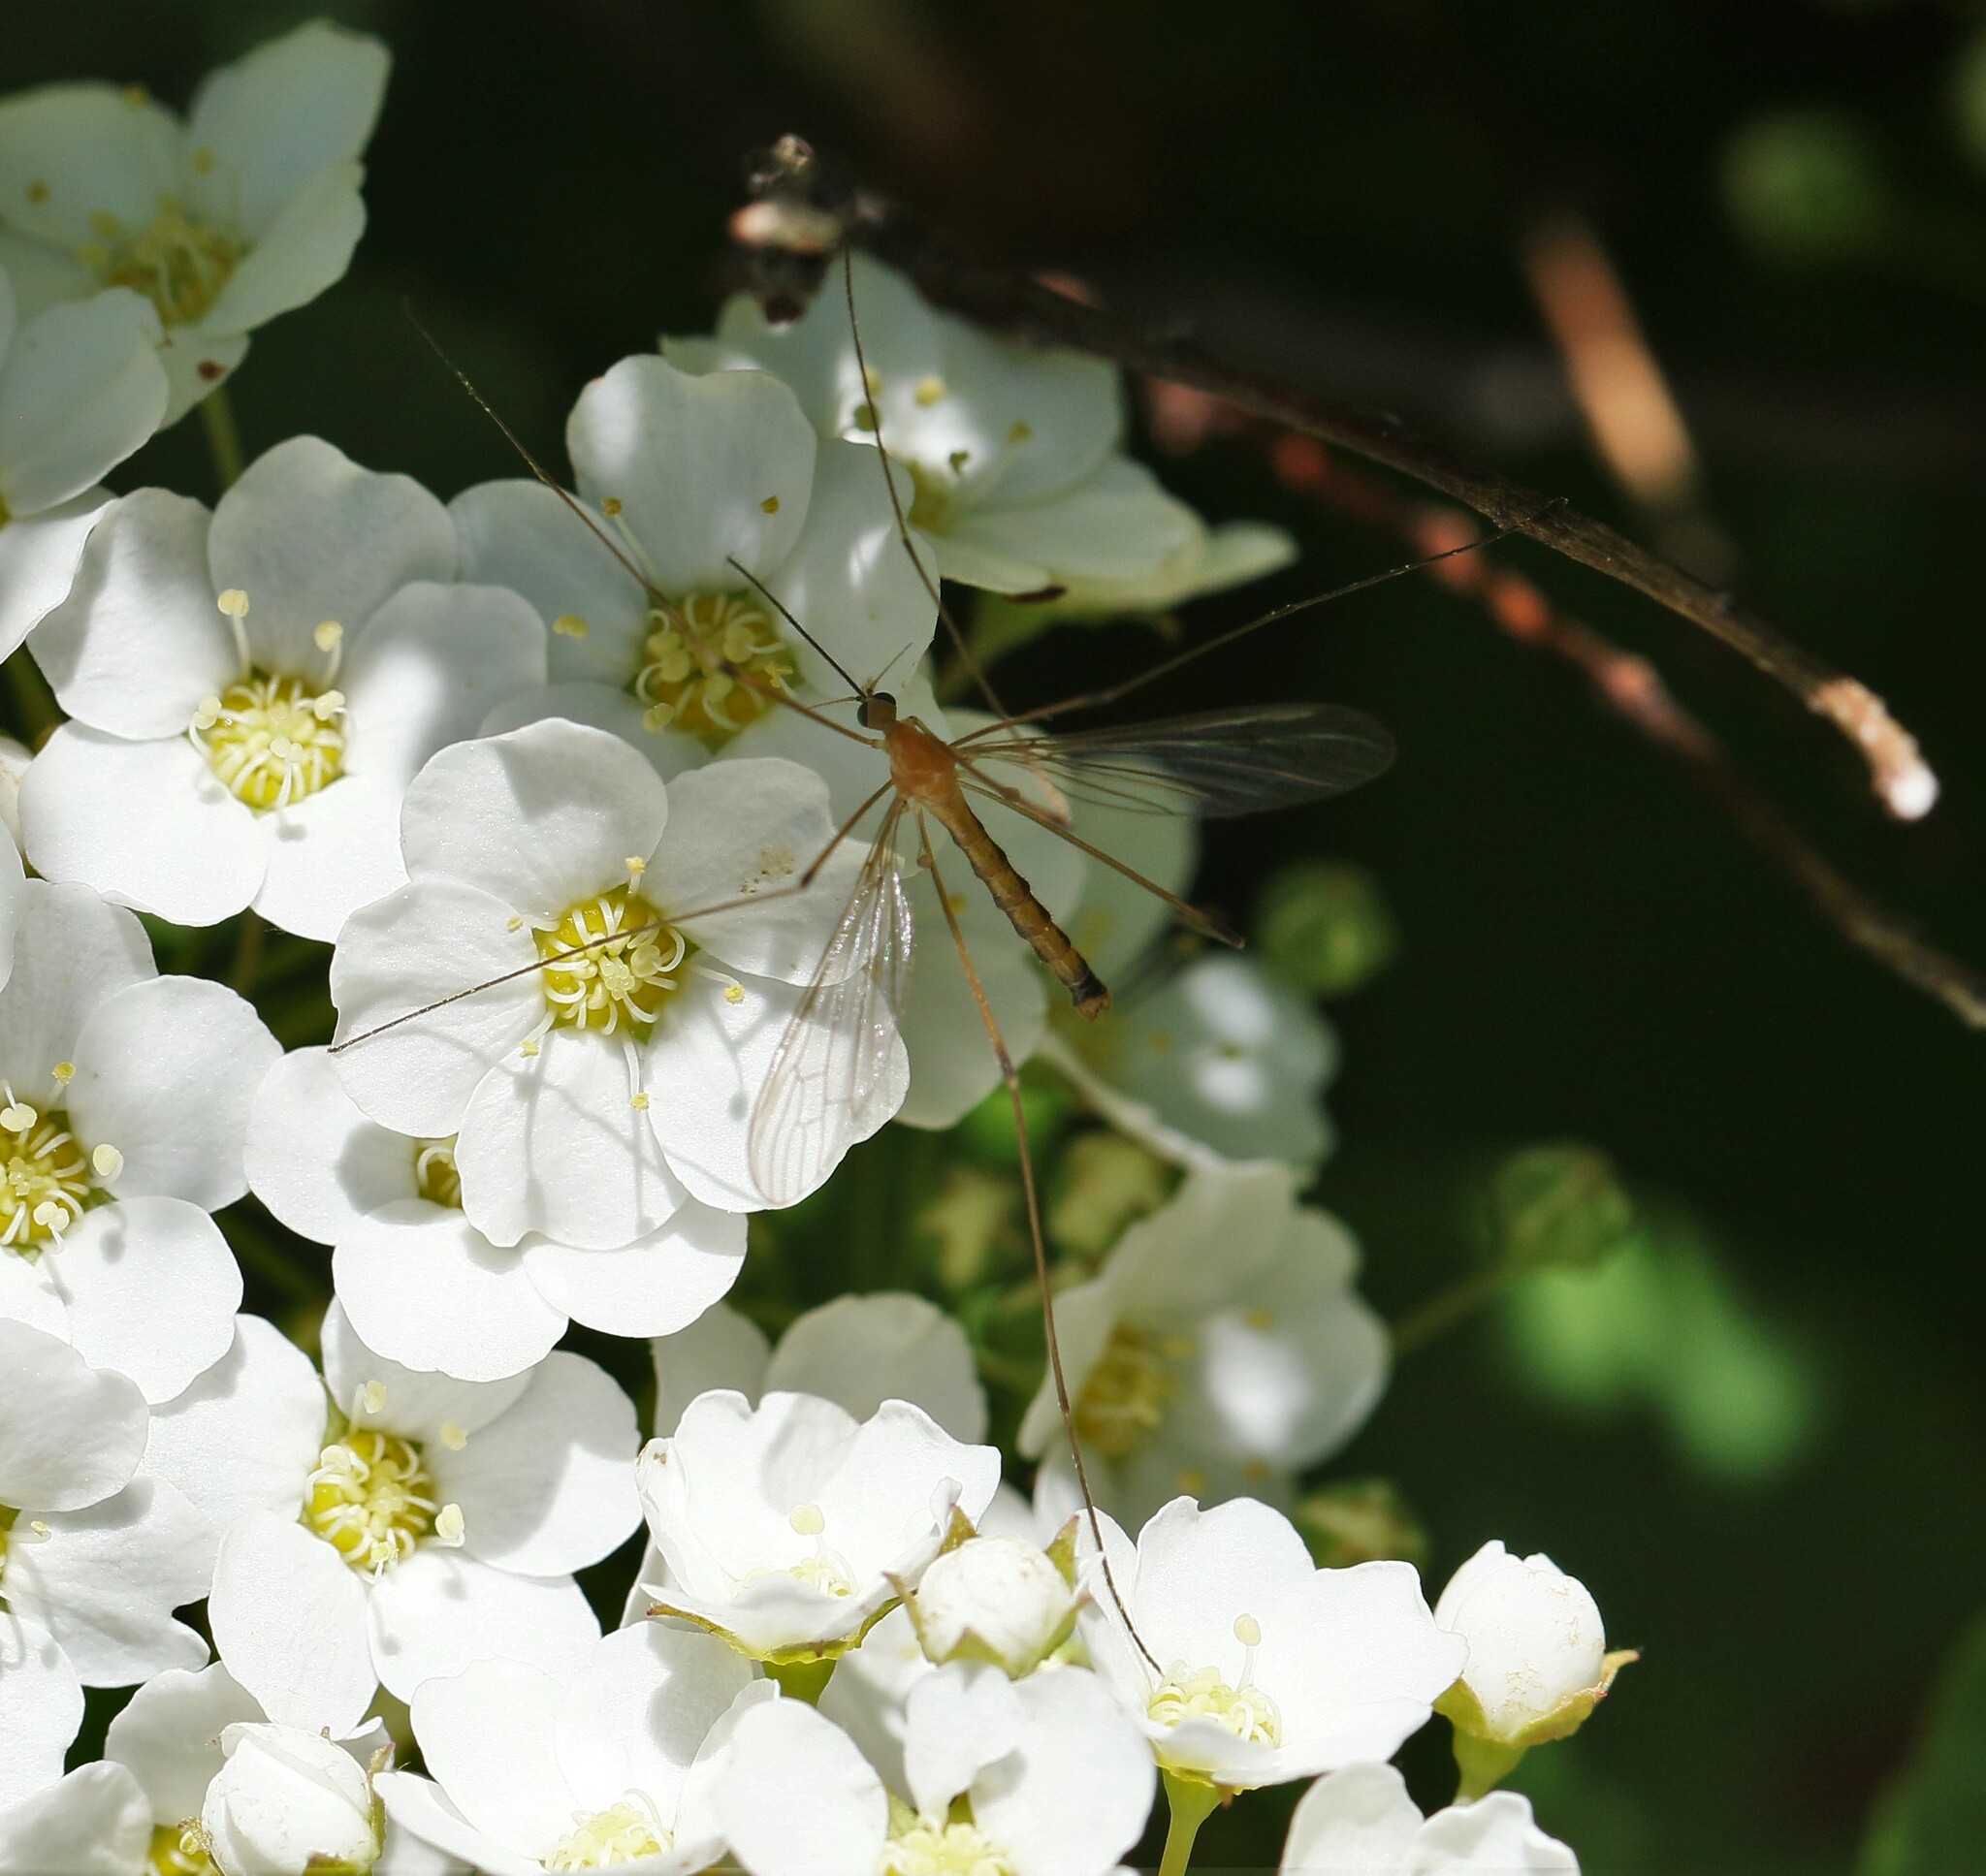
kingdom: Animalia
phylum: Arthropoda
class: Insecta
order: Diptera
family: Limoniidae
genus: Elephantomyia
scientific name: Elephantomyia westwoodi
